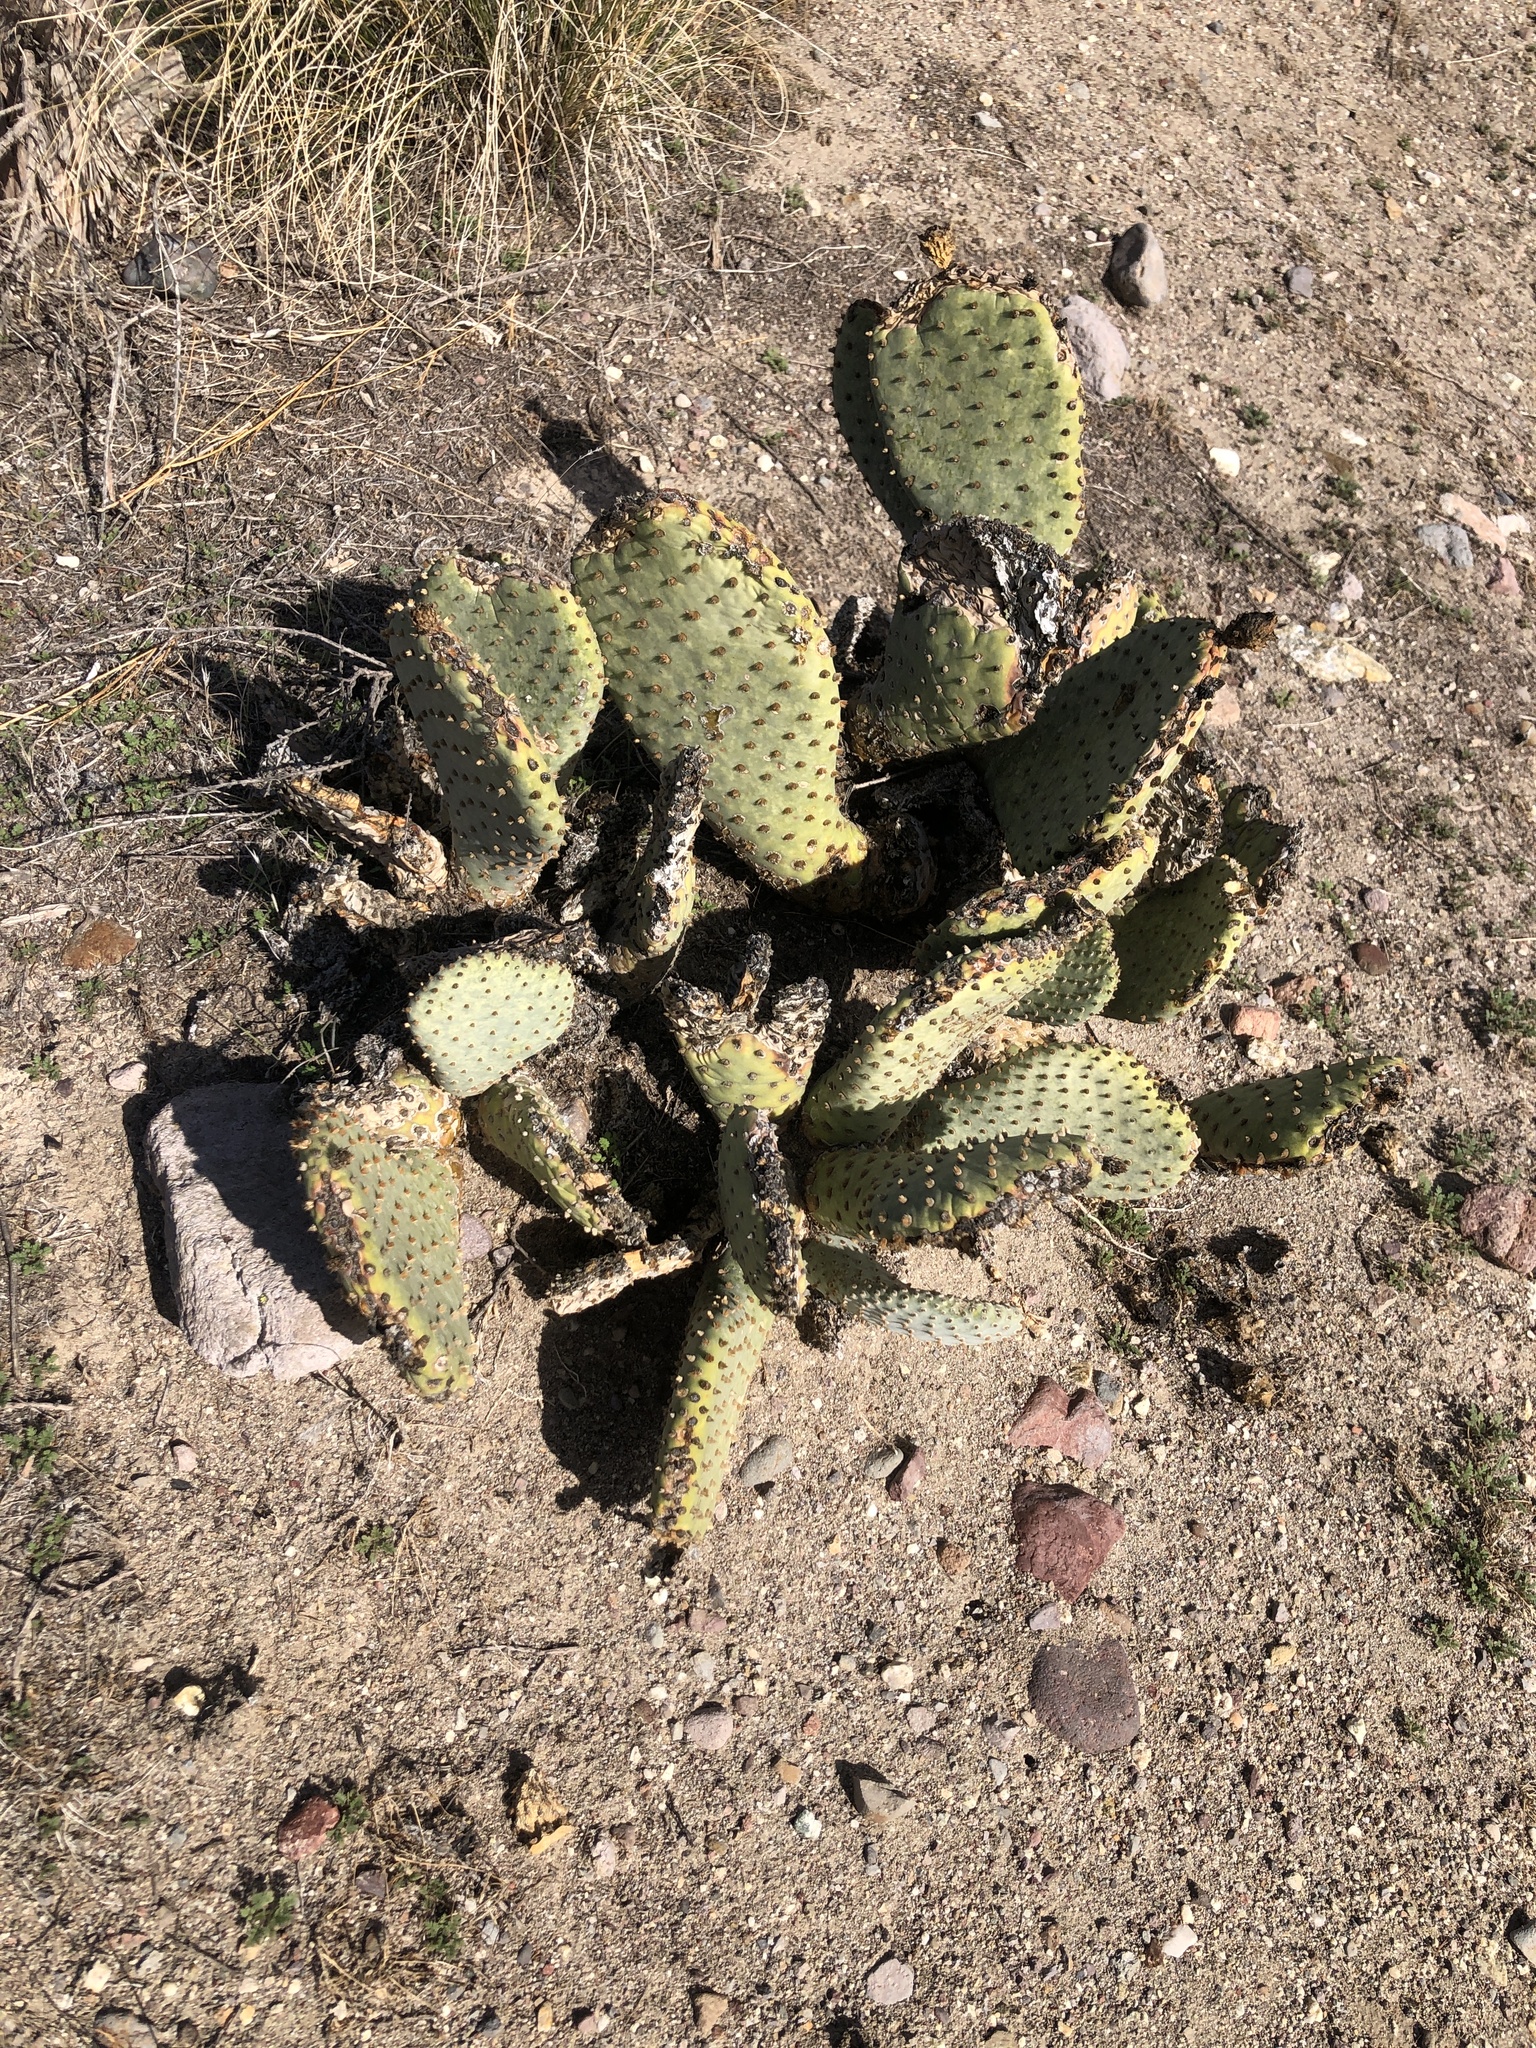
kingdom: Plantae
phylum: Tracheophyta
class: Magnoliopsida
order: Caryophyllales
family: Cactaceae
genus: Opuntia
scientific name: Opuntia basilaris
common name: Beavertail prickly-pear
